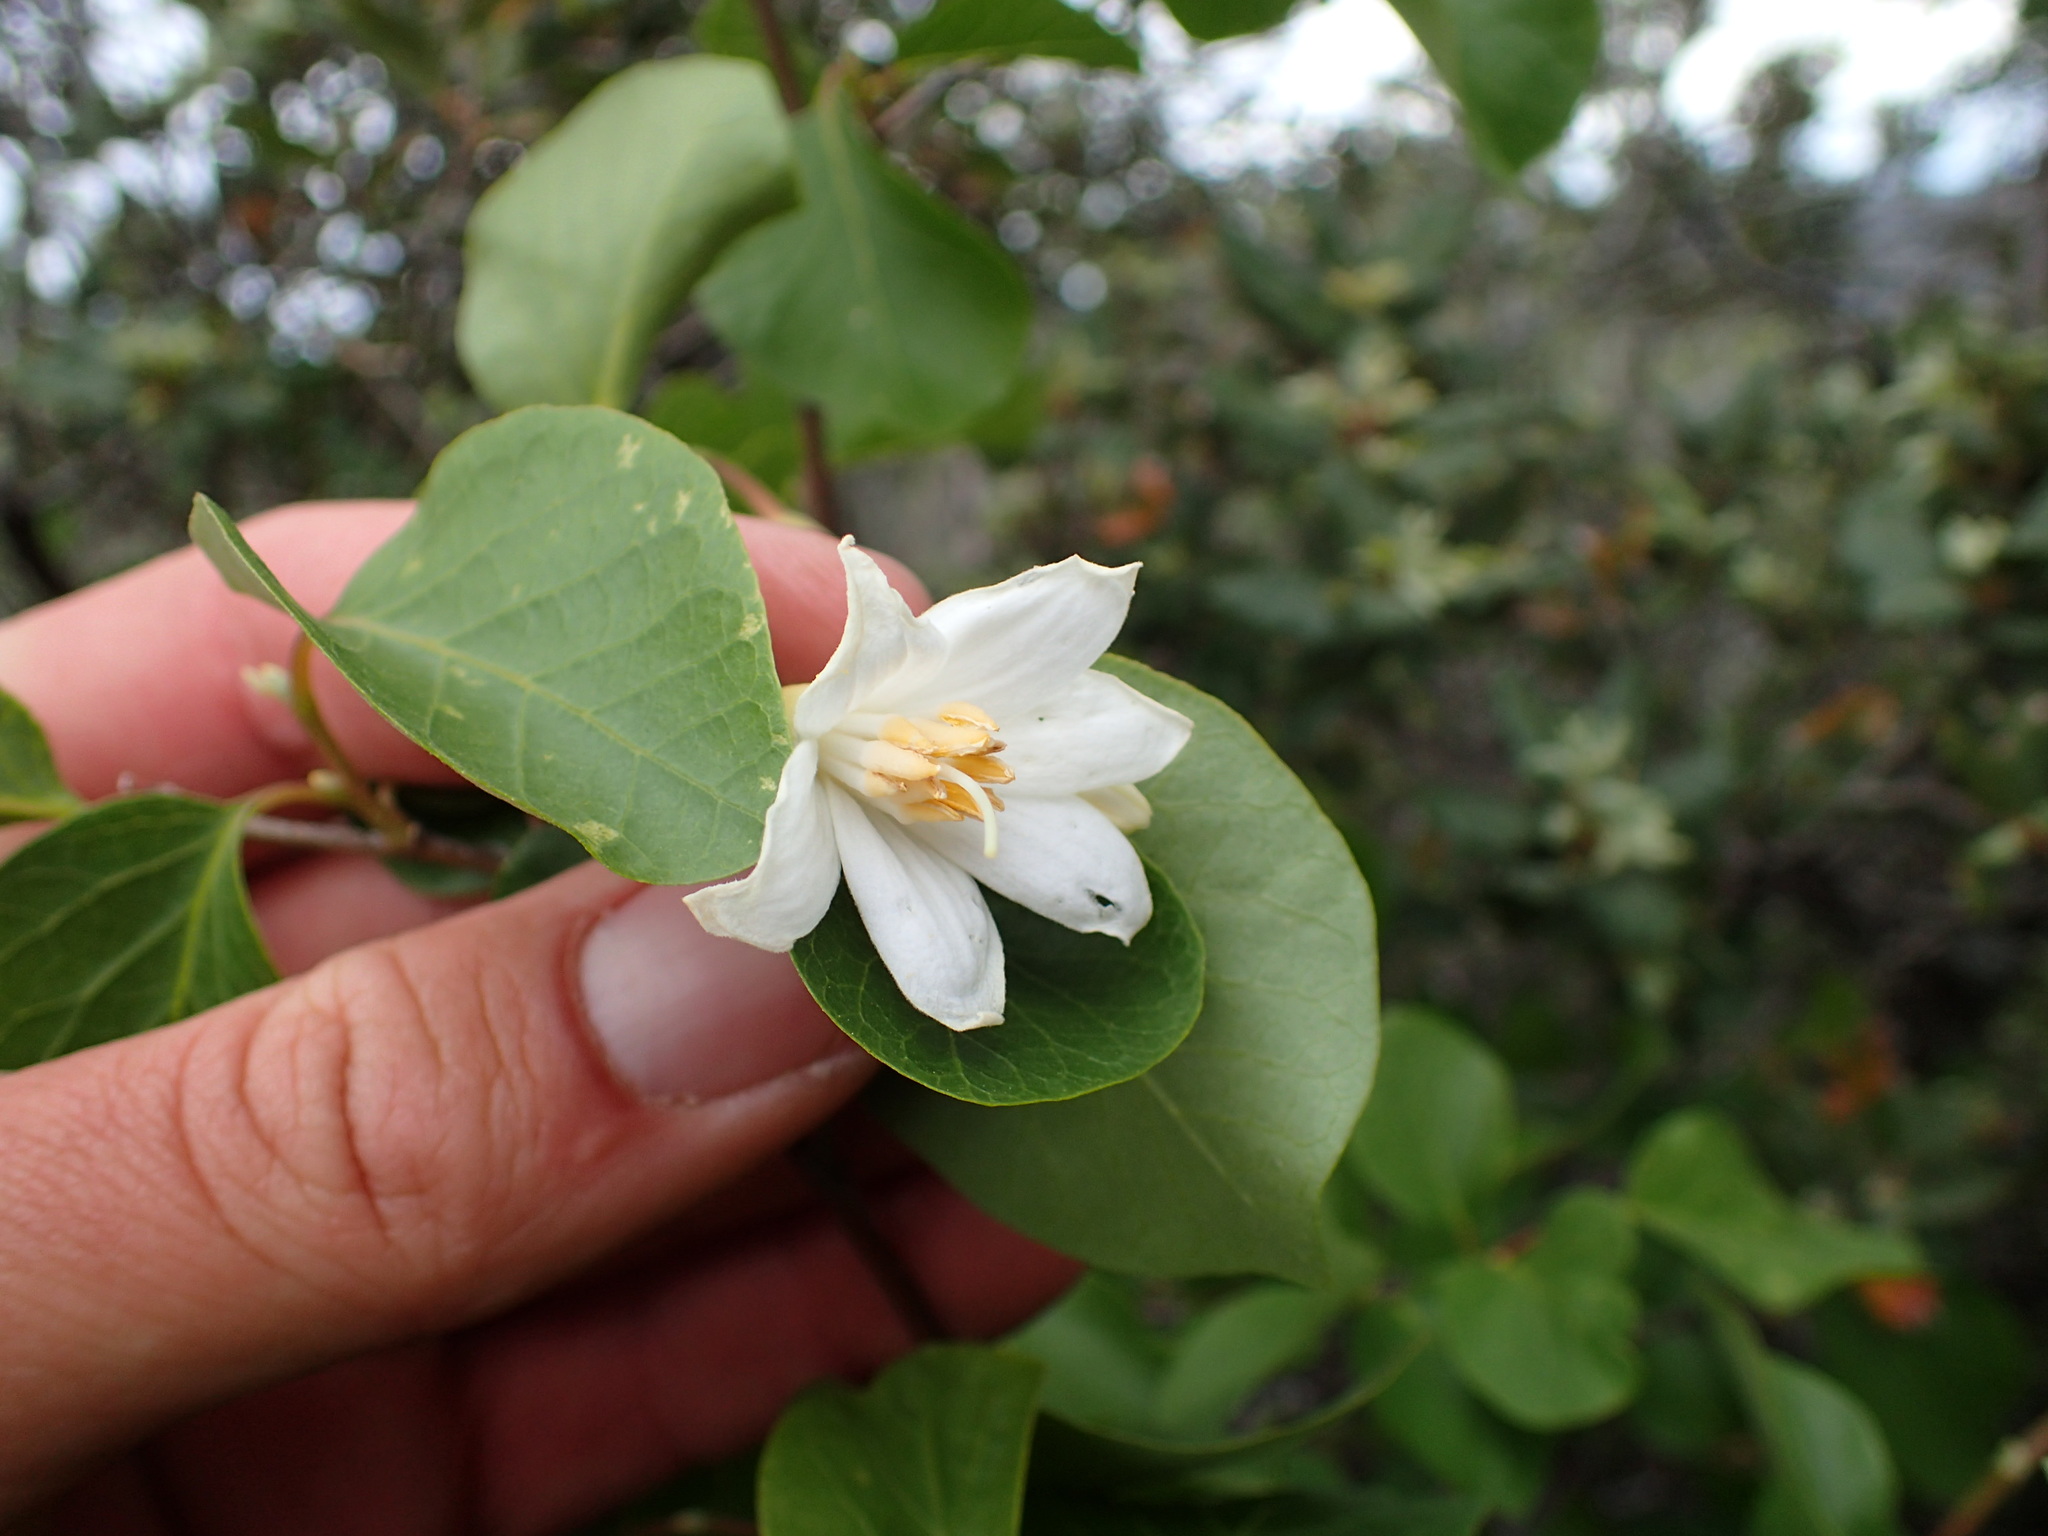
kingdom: Plantae
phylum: Tracheophyta
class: Magnoliopsida
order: Ericales
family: Styracaceae
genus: Styrax
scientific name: Styrax redivivus
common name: California styrax
